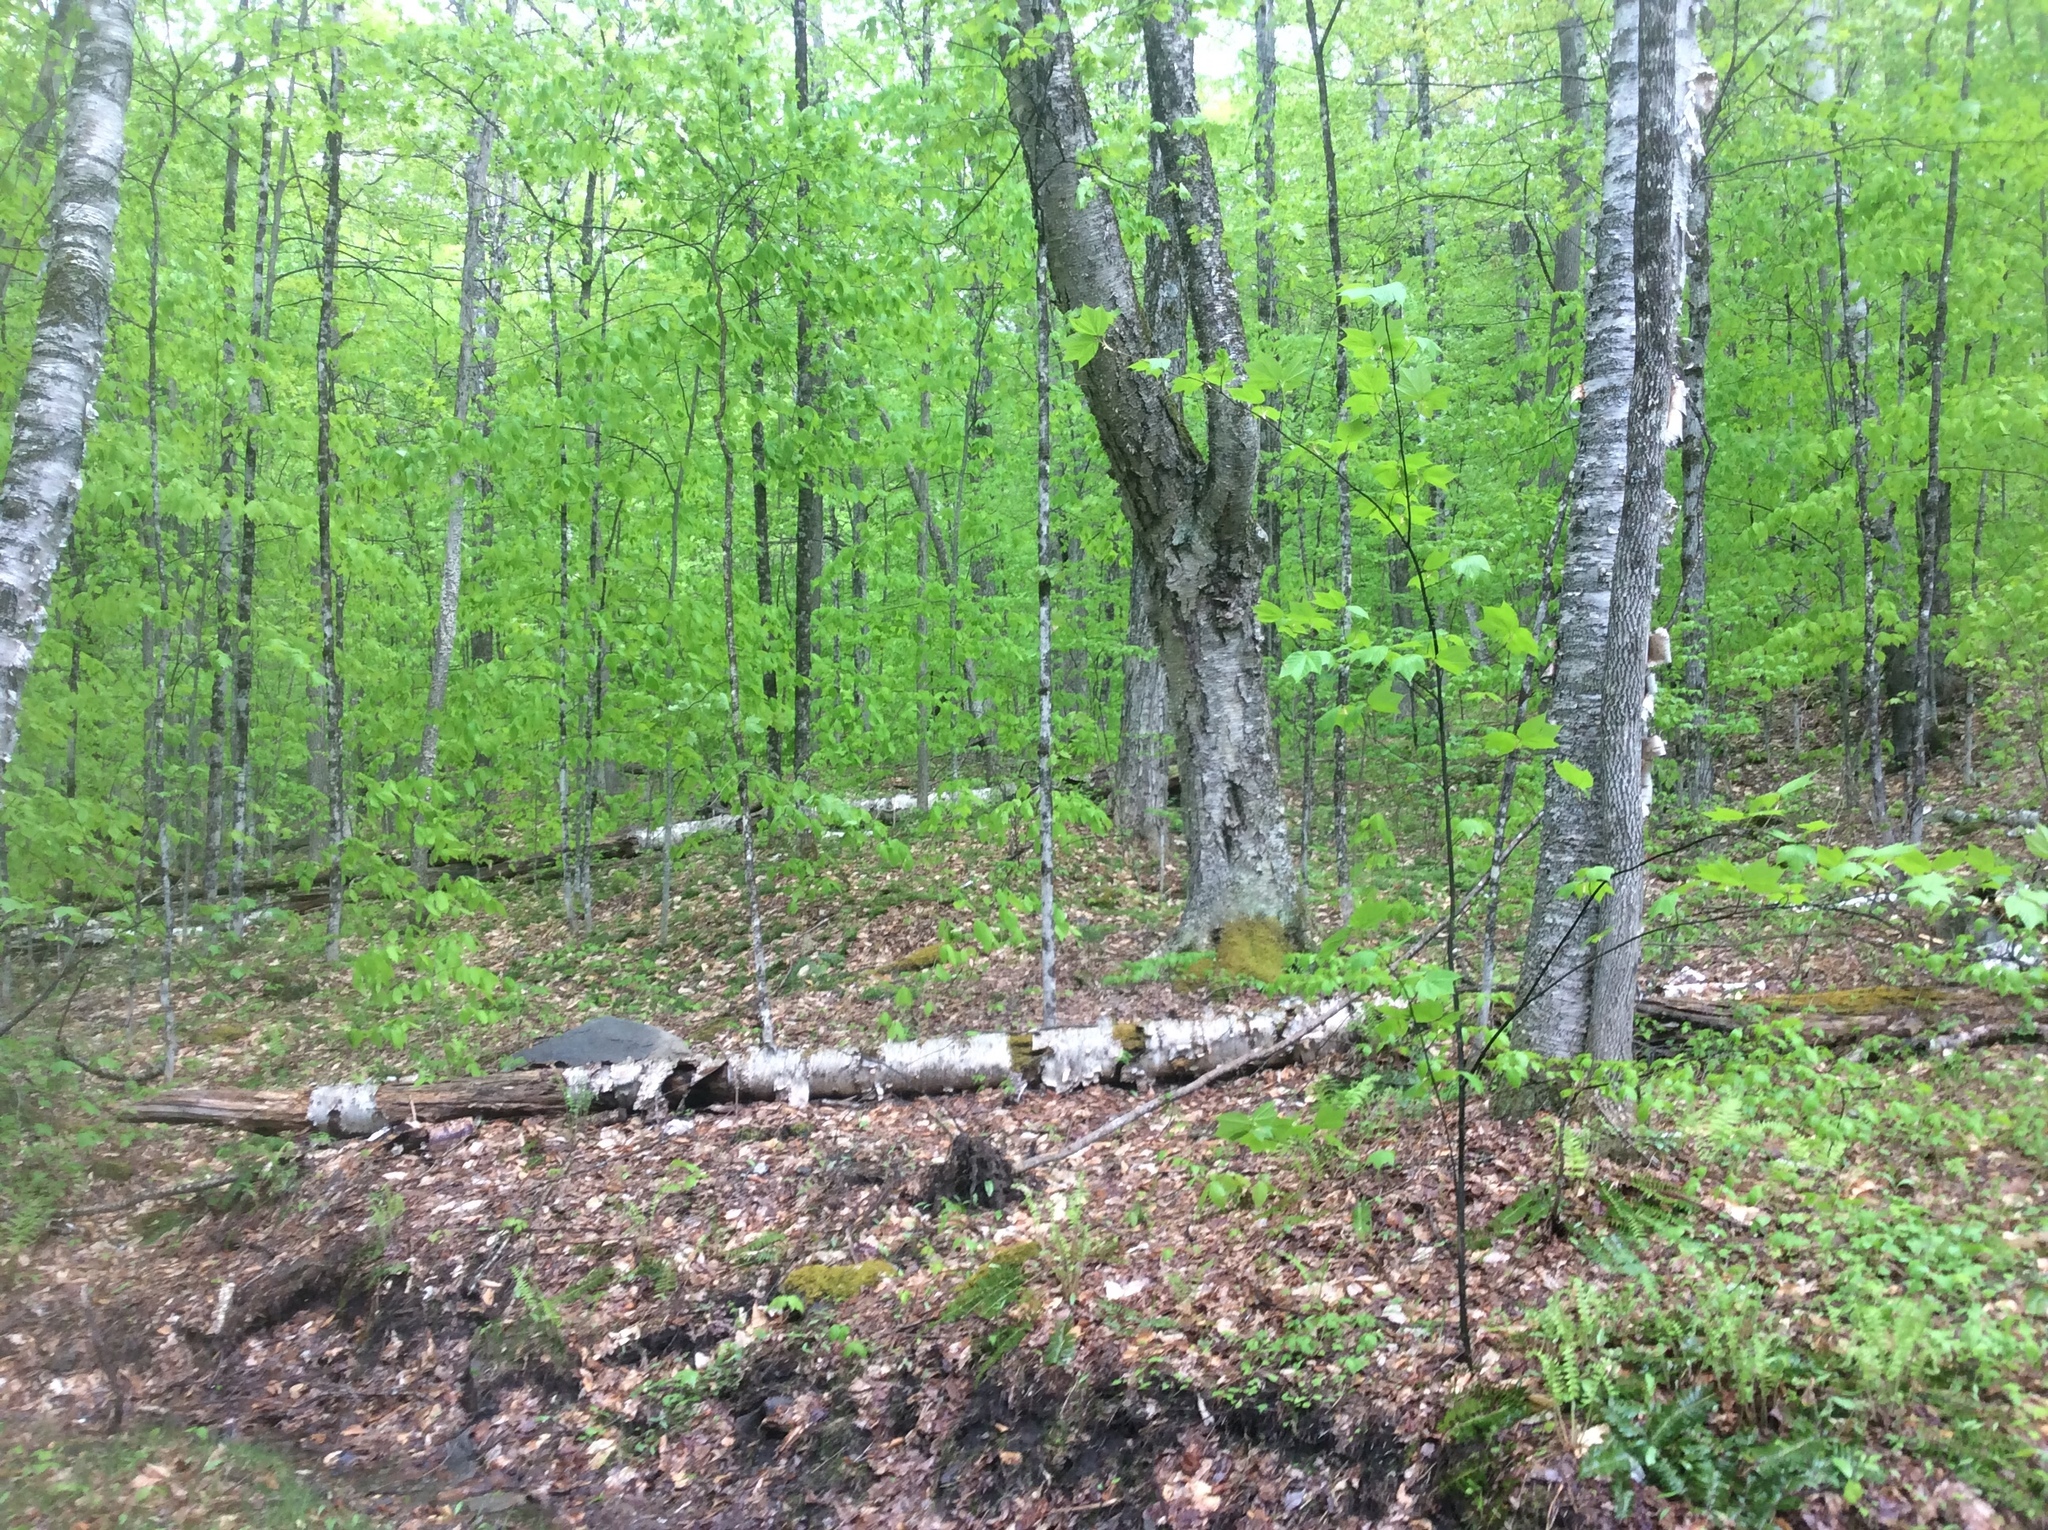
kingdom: Plantae
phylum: Tracheophyta
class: Magnoliopsida
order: Fagales
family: Betulaceae
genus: Betula
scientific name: Betula alleghaniensis
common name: Yellow birch
